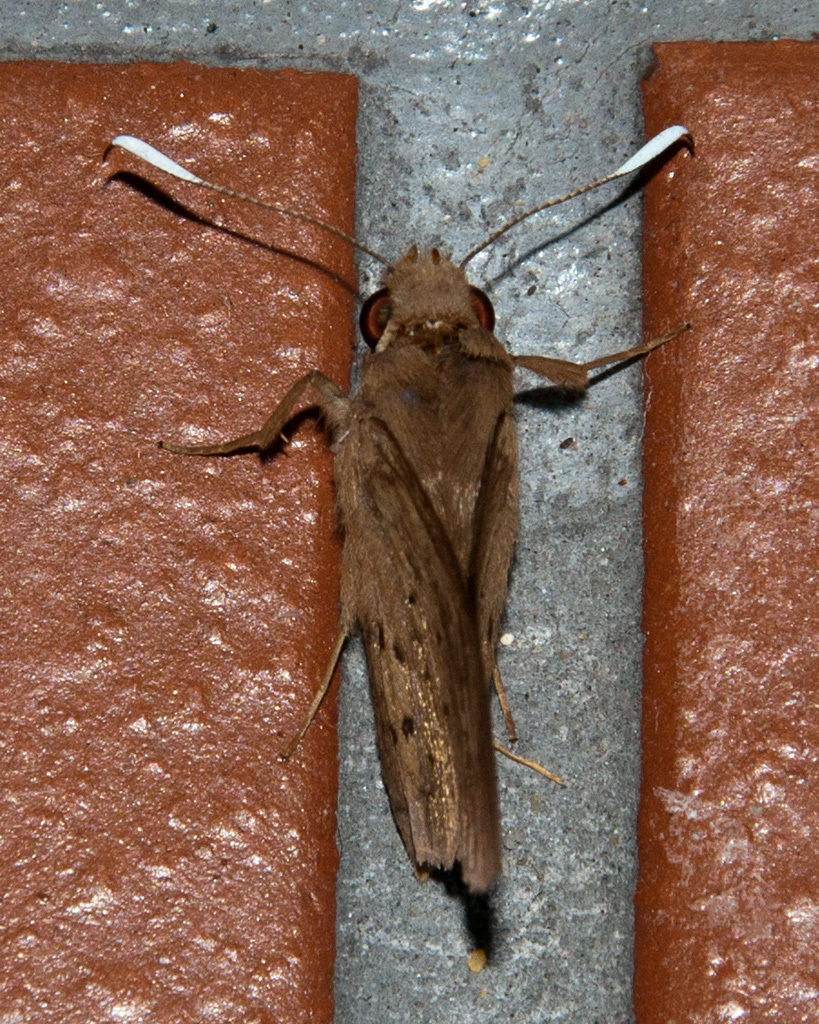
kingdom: Animalia
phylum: Arthropoda
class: Insecta
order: Lepidoptera
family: Hesperiidae
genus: Zophopetes
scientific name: Zophopetes dysmephila
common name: Palm-tree nightfighter
